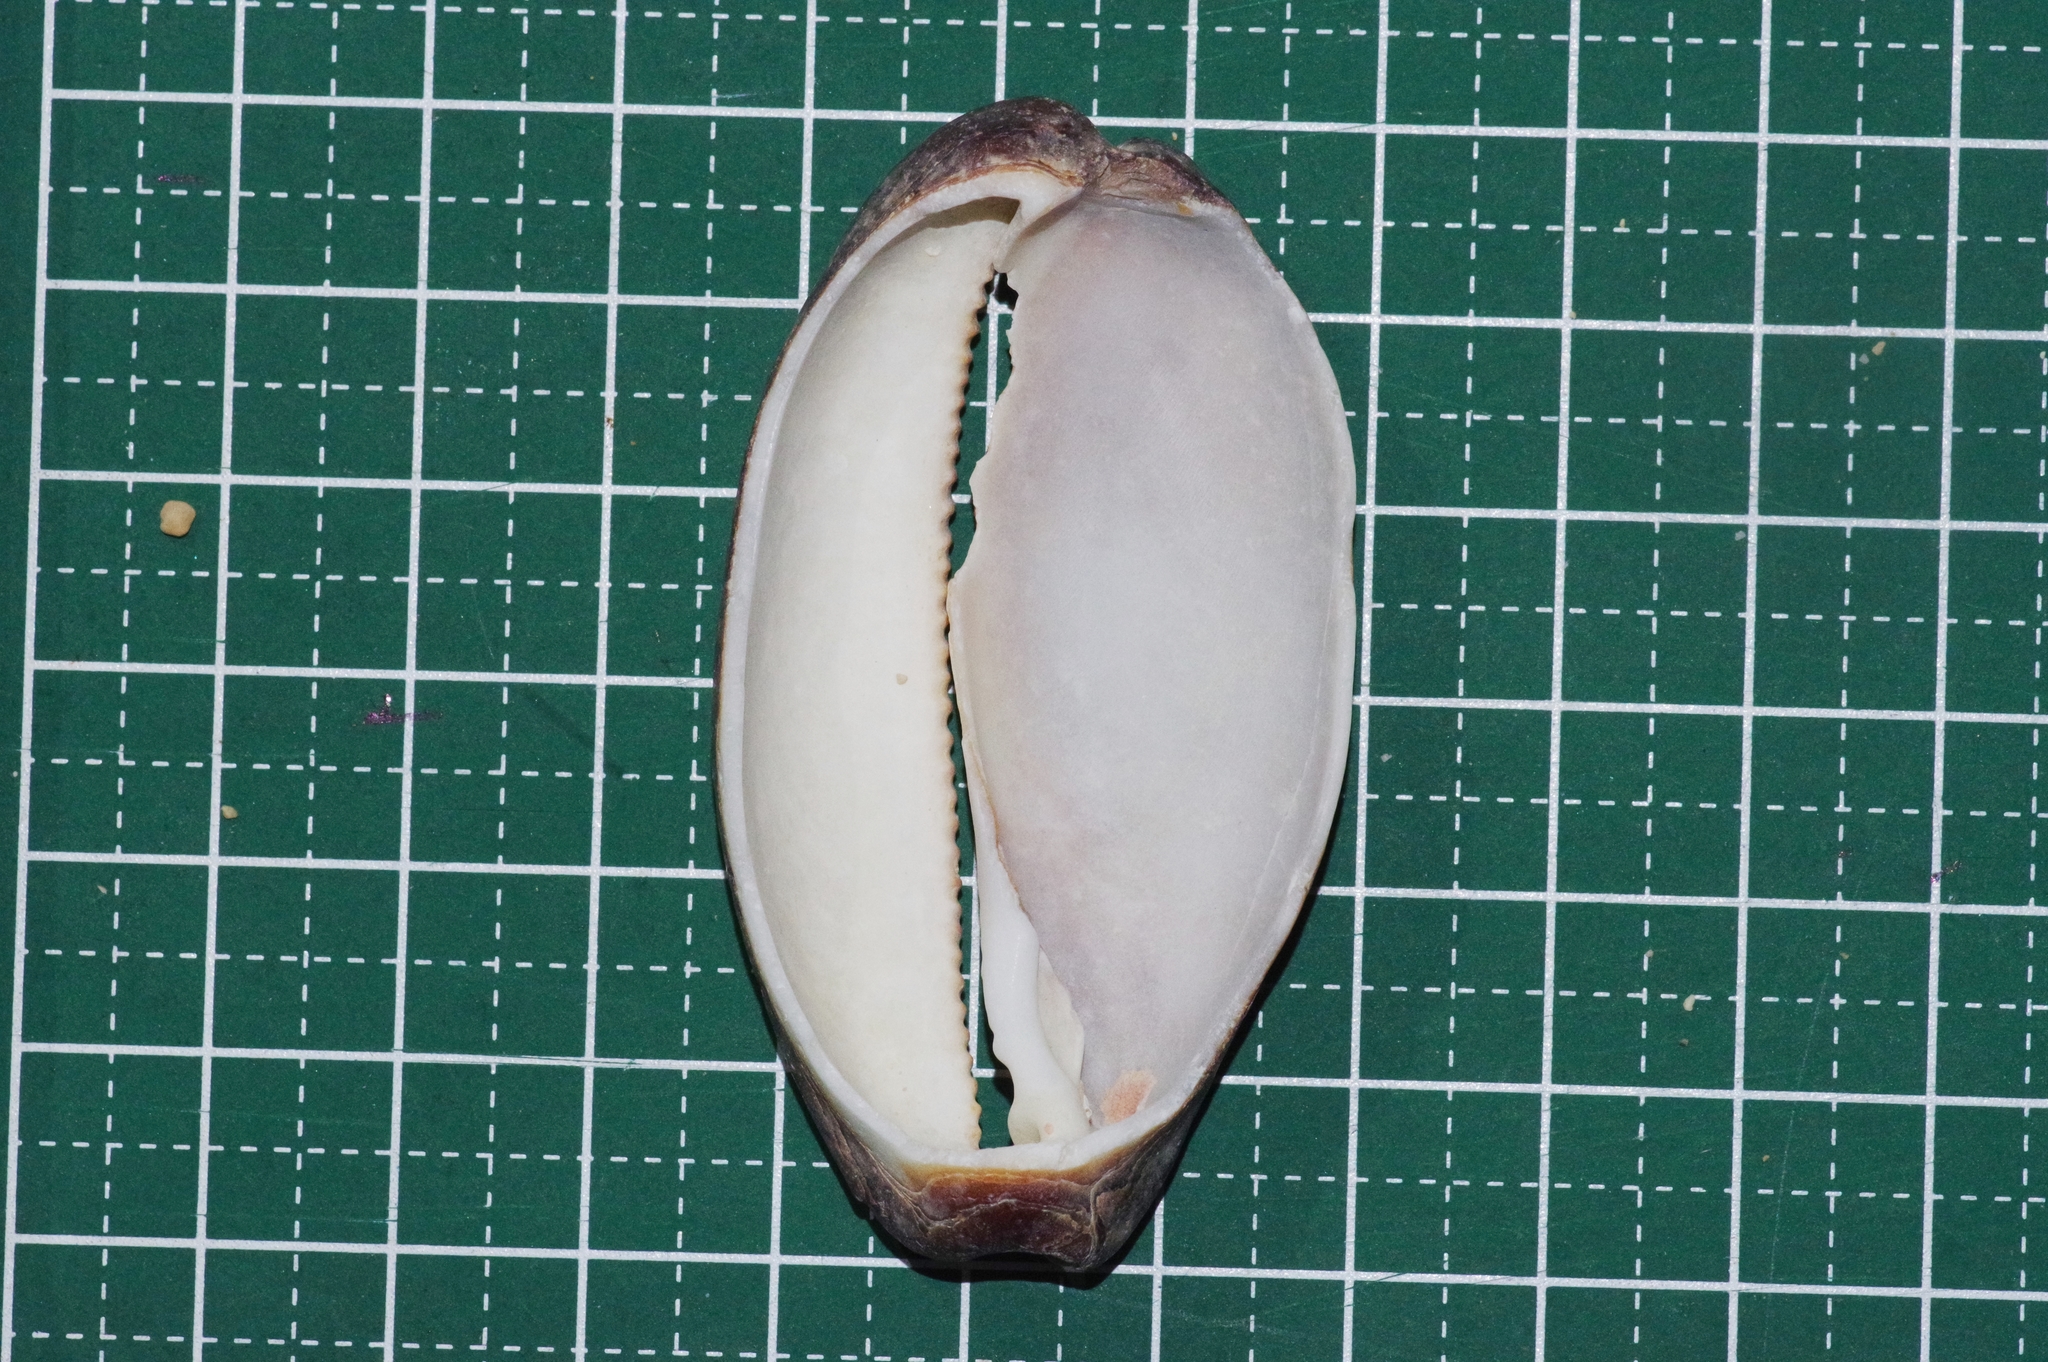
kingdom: Animalia
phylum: Mollusca
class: Gastropoda
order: Littorinimorpha
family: Cypraeidae
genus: Talparia
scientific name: Talparia talpa
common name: Mole cowrie
